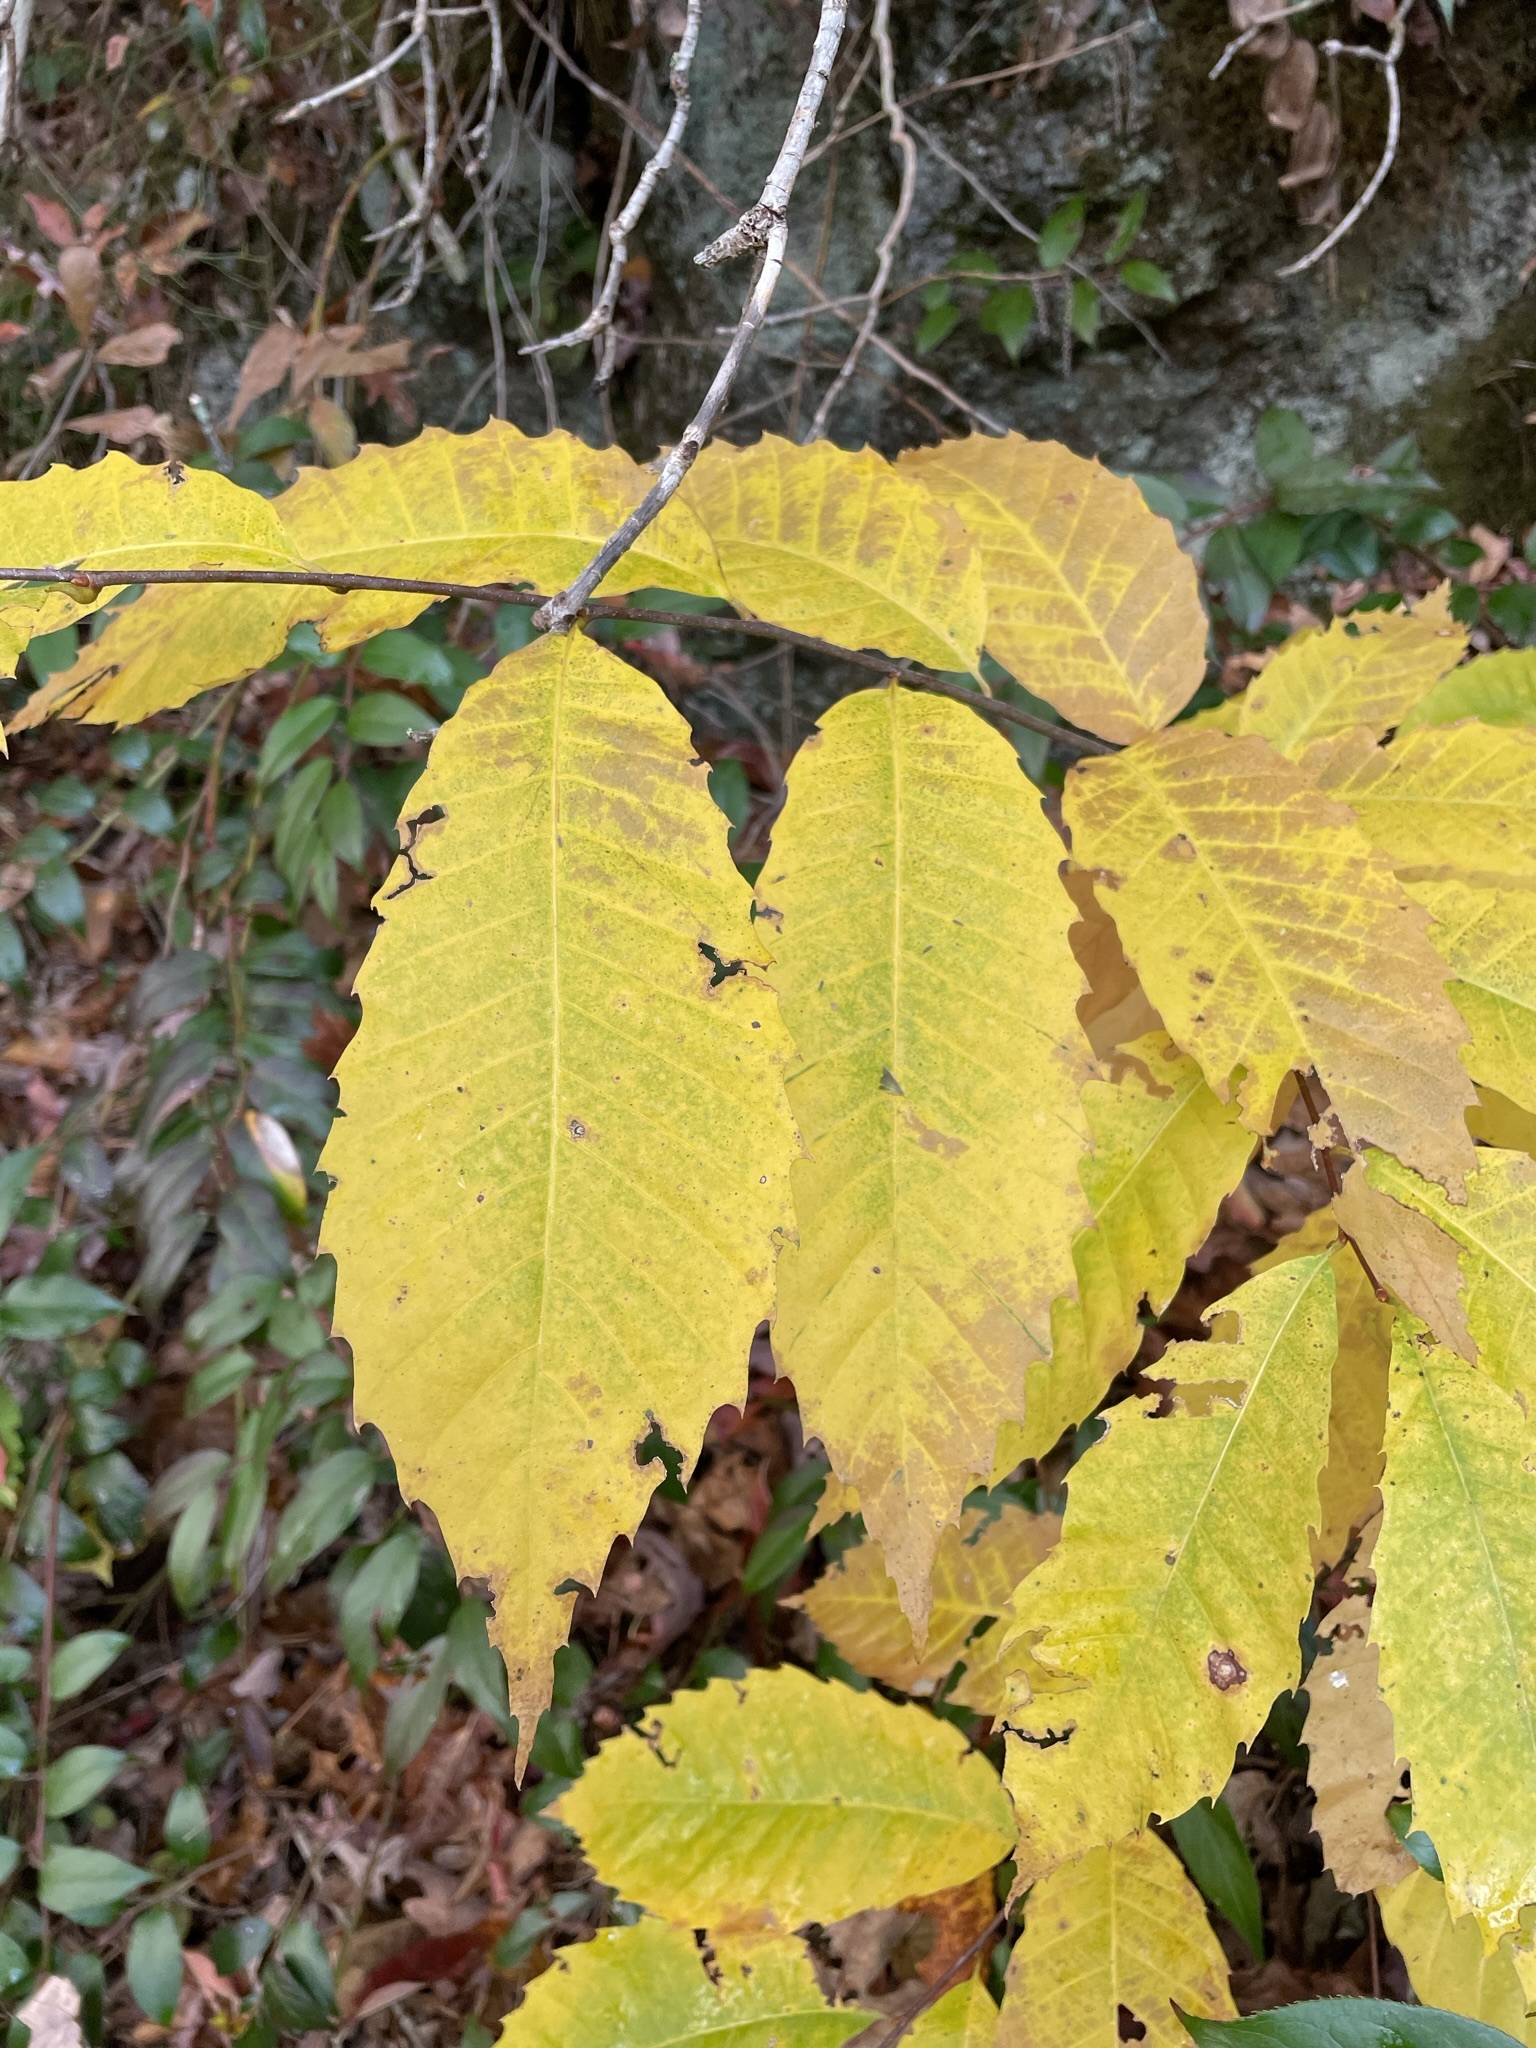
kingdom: Plantae
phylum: Tracheophyta
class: Magnoliopsida
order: Fagales
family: Fagaceae
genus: Castanea
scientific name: Castanea dentata
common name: American chestnut
